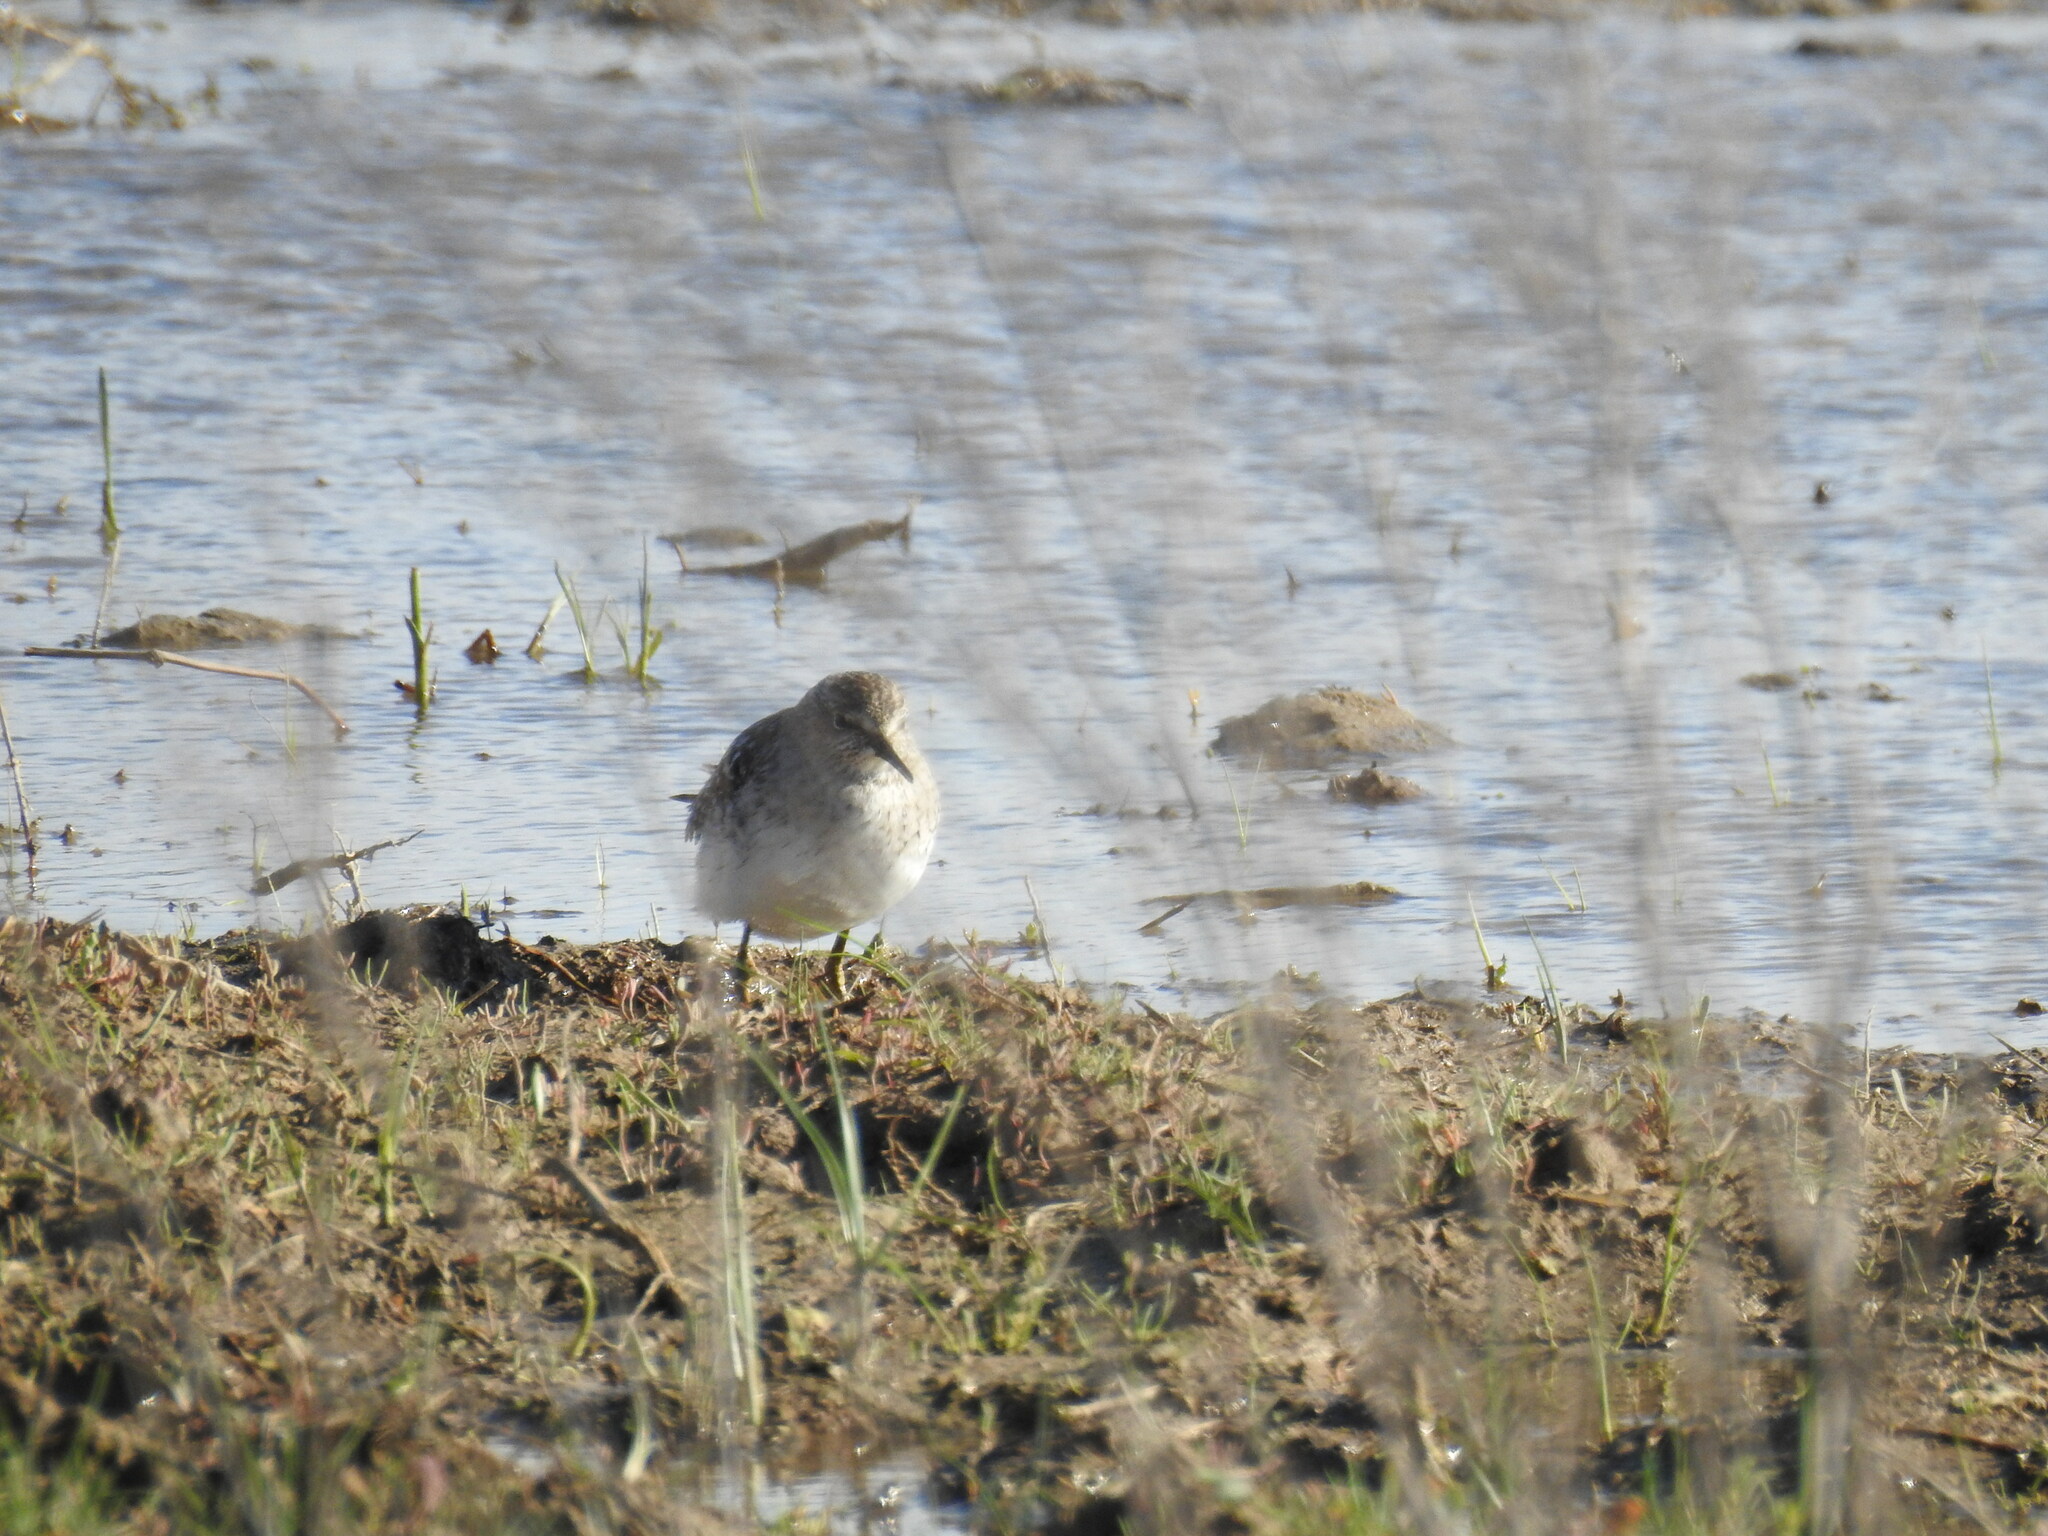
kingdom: Animalia
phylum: Chordata
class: Aves
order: Charadriiformes
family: Scolopacidae
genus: Tringa
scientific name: Tringa glareola
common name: Wood sandpiper
